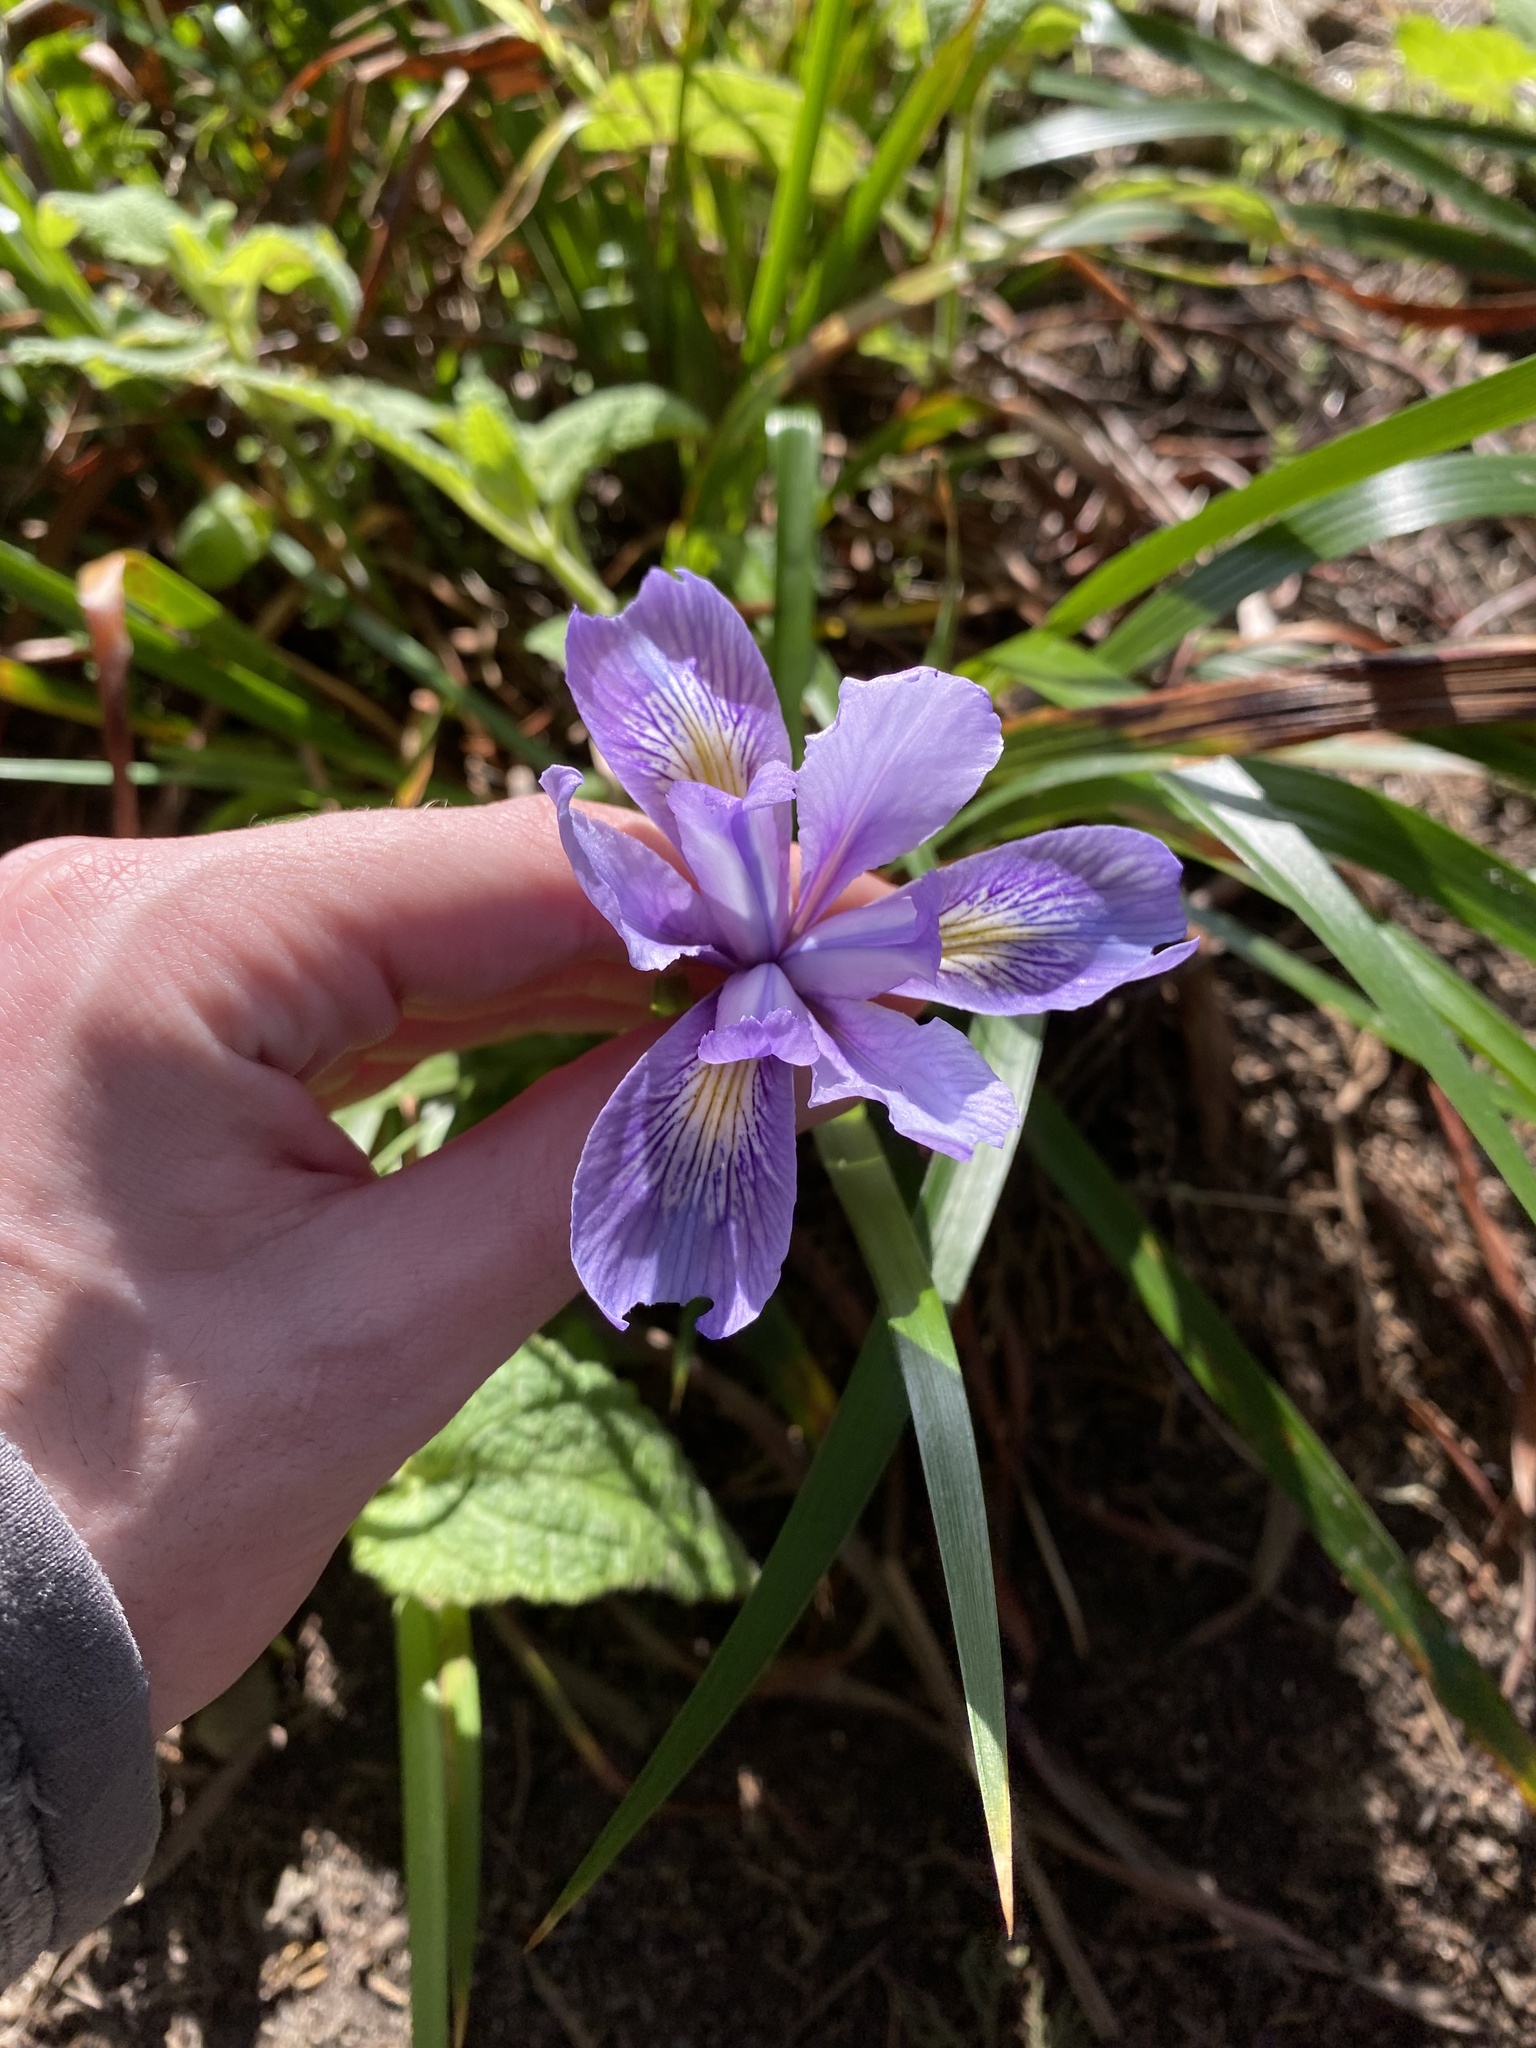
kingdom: Plantae
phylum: Tracheophyta
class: Liliopsida
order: Asparagales
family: Iridaceae
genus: Iris
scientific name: Iris douglasiana
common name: Marin iris
